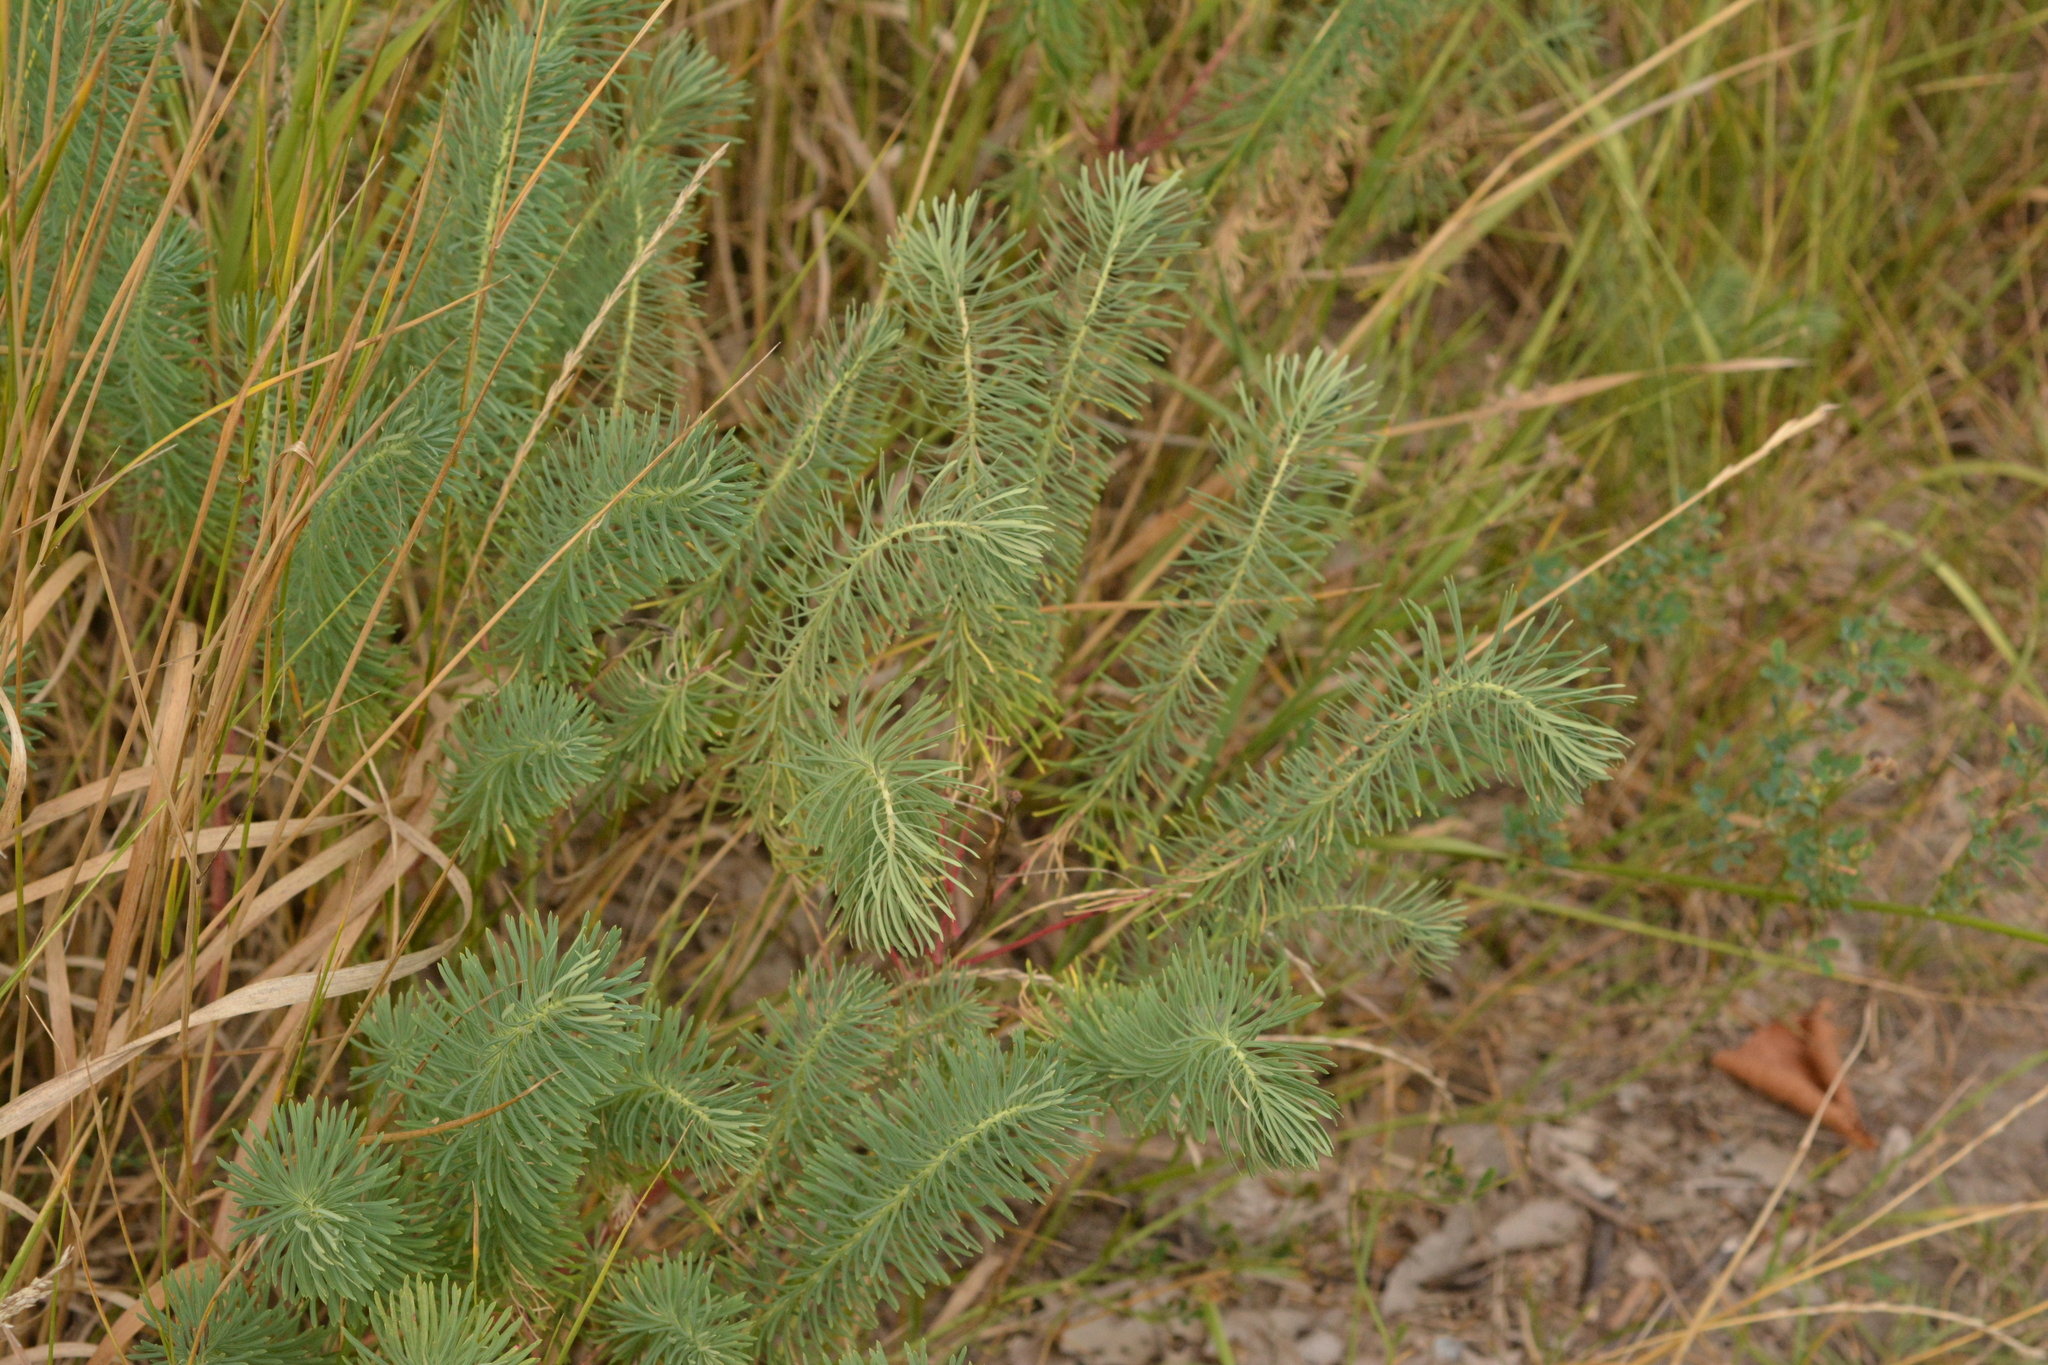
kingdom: Plantae
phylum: Tracheophyta
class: Magnoliopsida
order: Malpighiales
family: Euphorbiaceae
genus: Euphorbia
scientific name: Euphorbia cyparissias
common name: Cypress spurge
